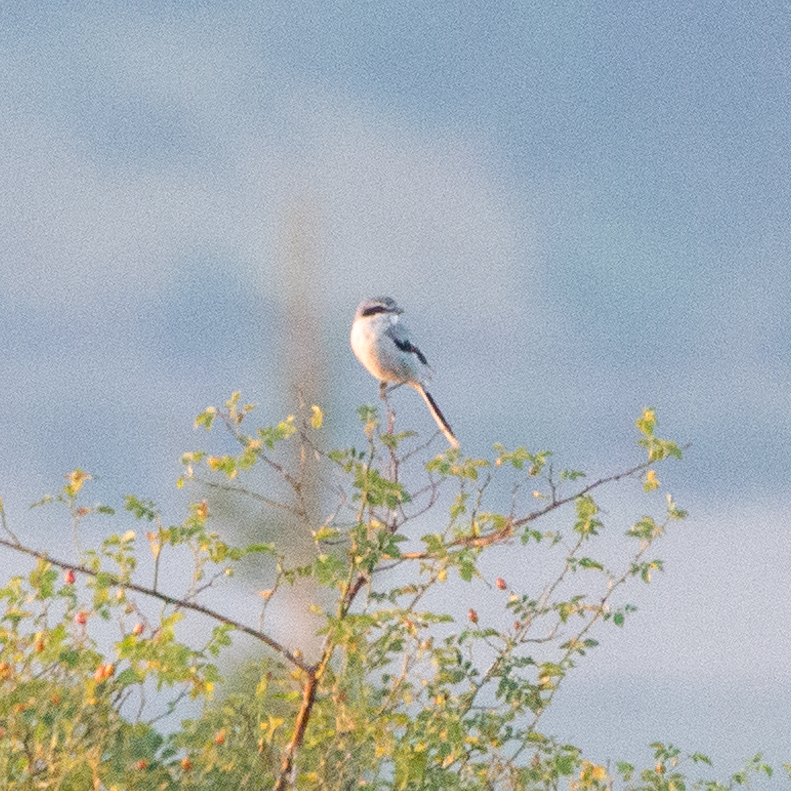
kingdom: Animalia
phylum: Chordata
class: Aves
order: Passeriformes
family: Laniidae
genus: Lanius
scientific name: Lanius meridionalis
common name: Iberian grey shrike
